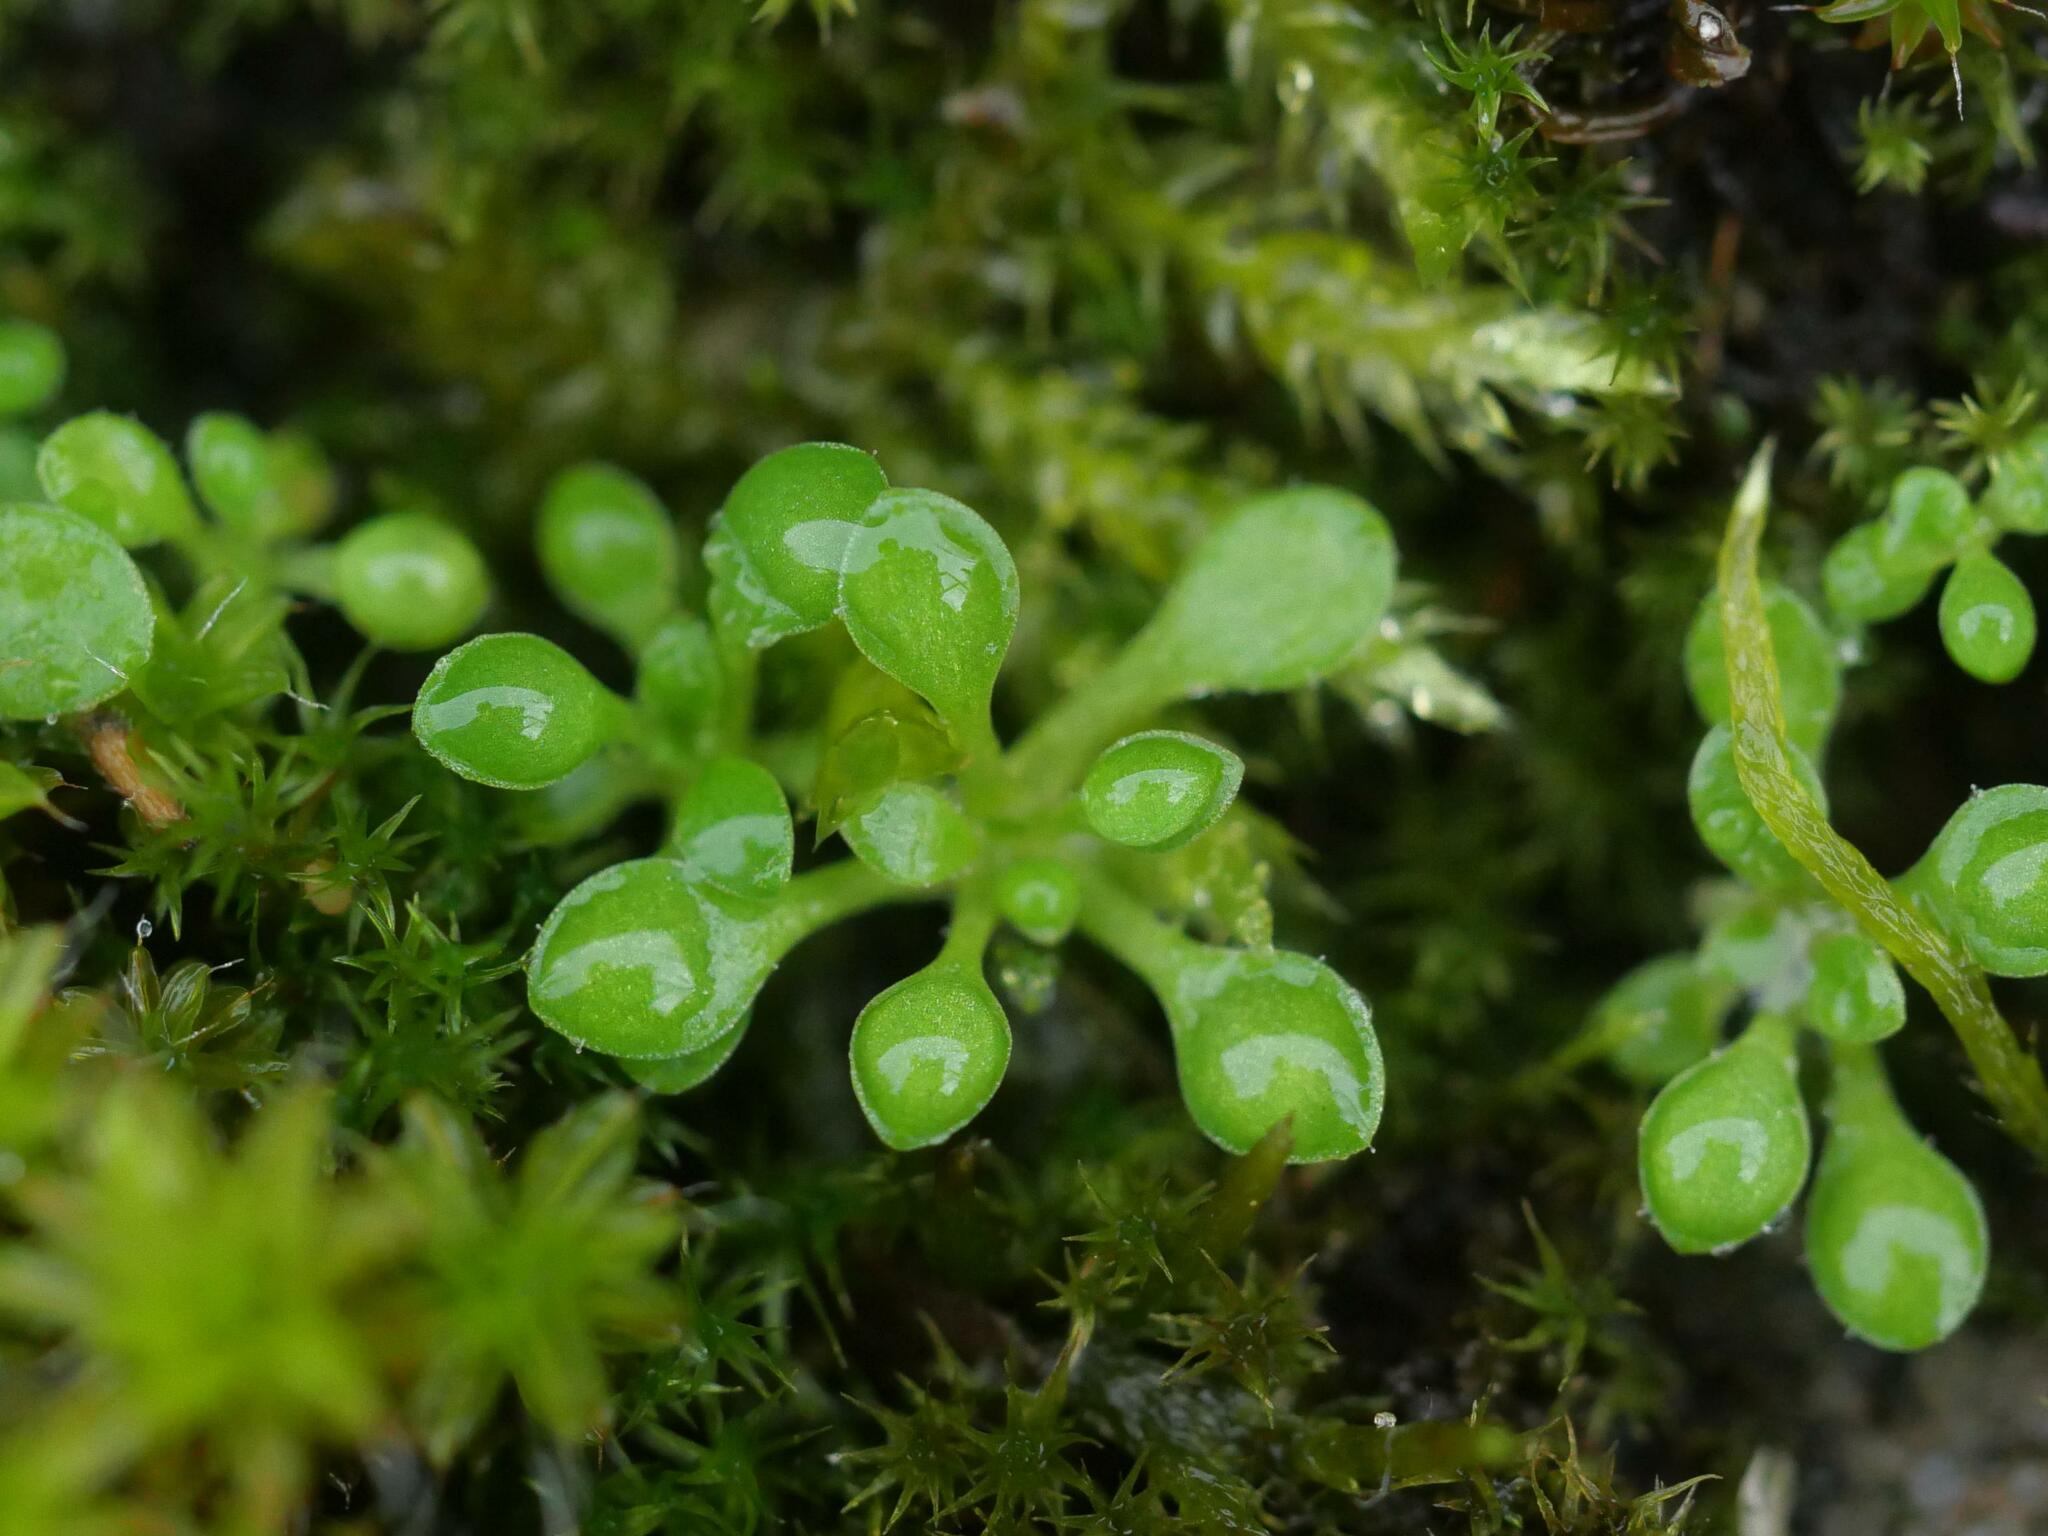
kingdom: Plantae
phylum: Tracheophyta
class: Magnoliopsida
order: Saxifragales
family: Saxifragaceae
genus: Saxifraga
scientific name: Saxifraga tridactylites
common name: Rue-leaved saxifrage
